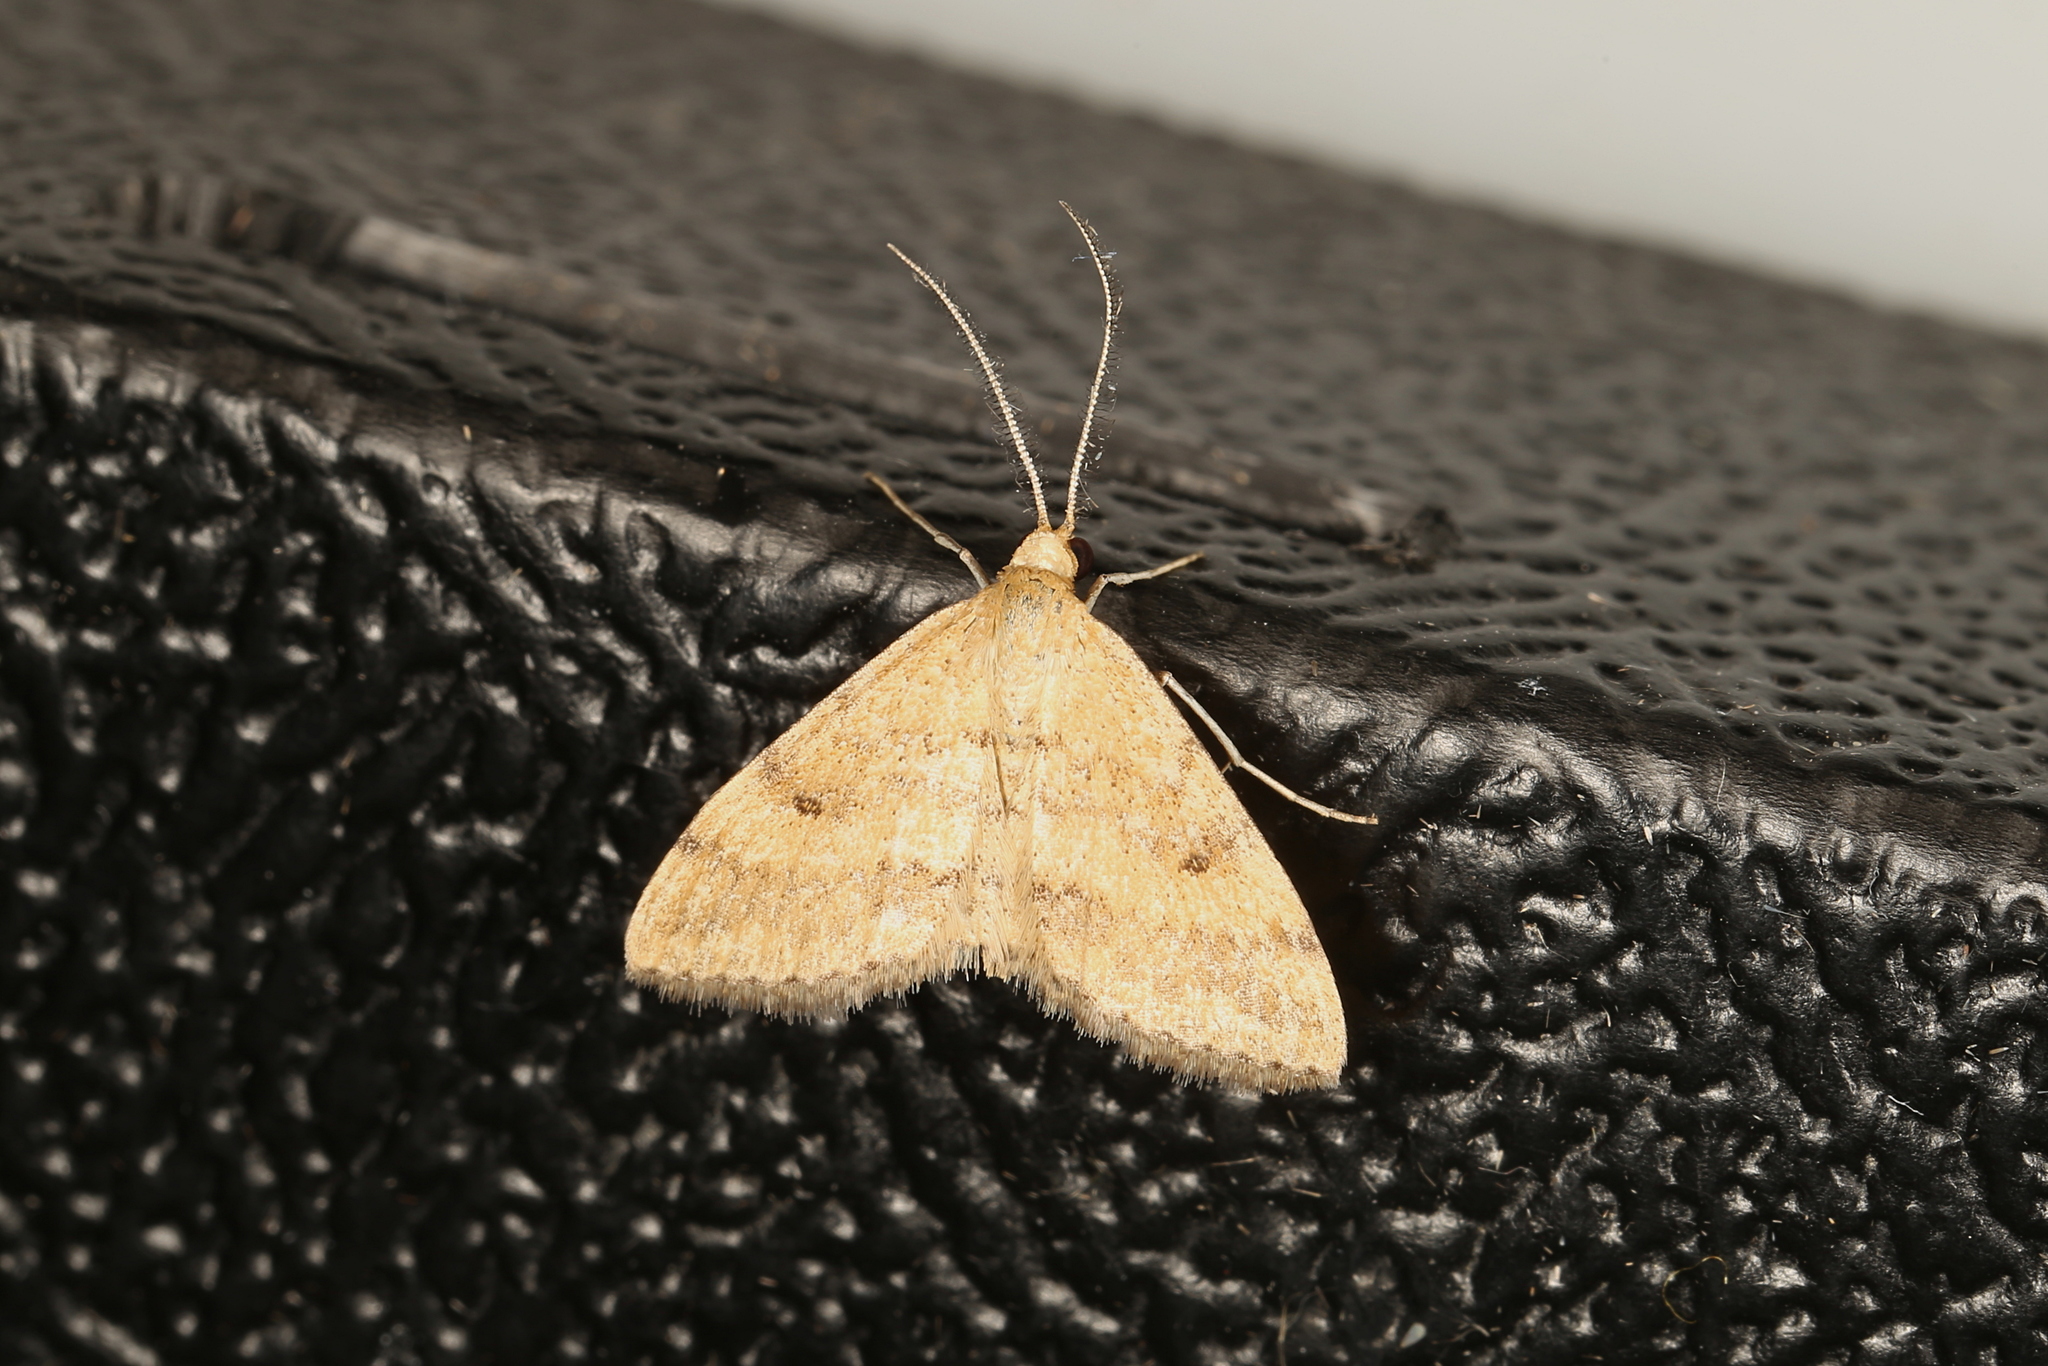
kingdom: Animalia
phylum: Arthropoda
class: Insecta
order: Lepidoptera
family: Geometridae
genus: Scopula
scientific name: Scopula rubraria
